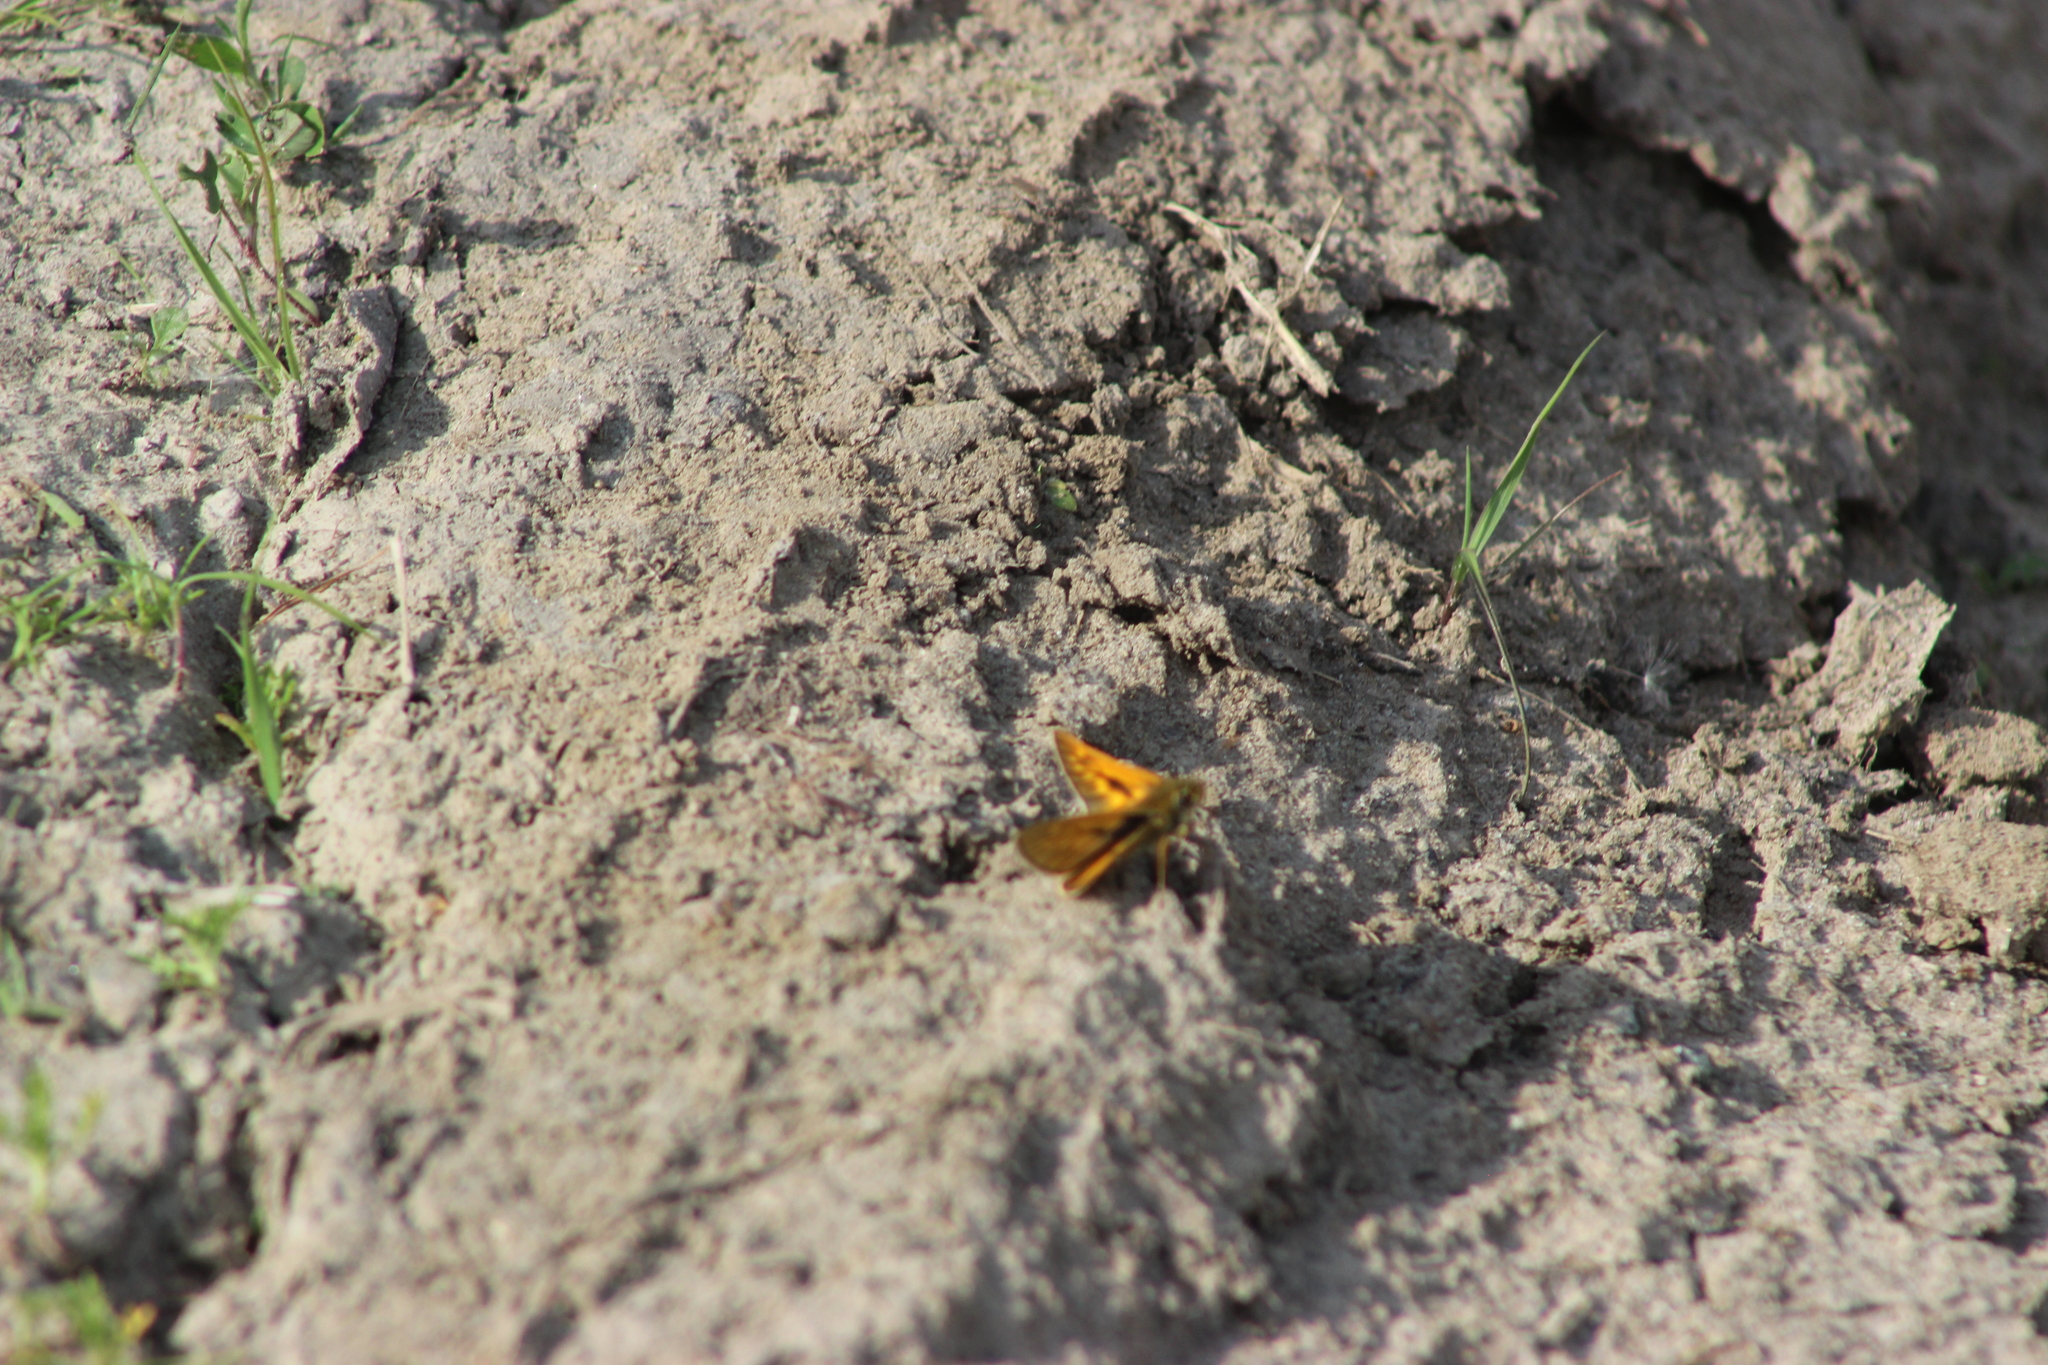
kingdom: Animalia
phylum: Arthropoda
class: Insecta
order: Lepidoptera
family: Hesperiidae
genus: Ochlodes
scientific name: Ochlodes venata
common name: Large skipper
